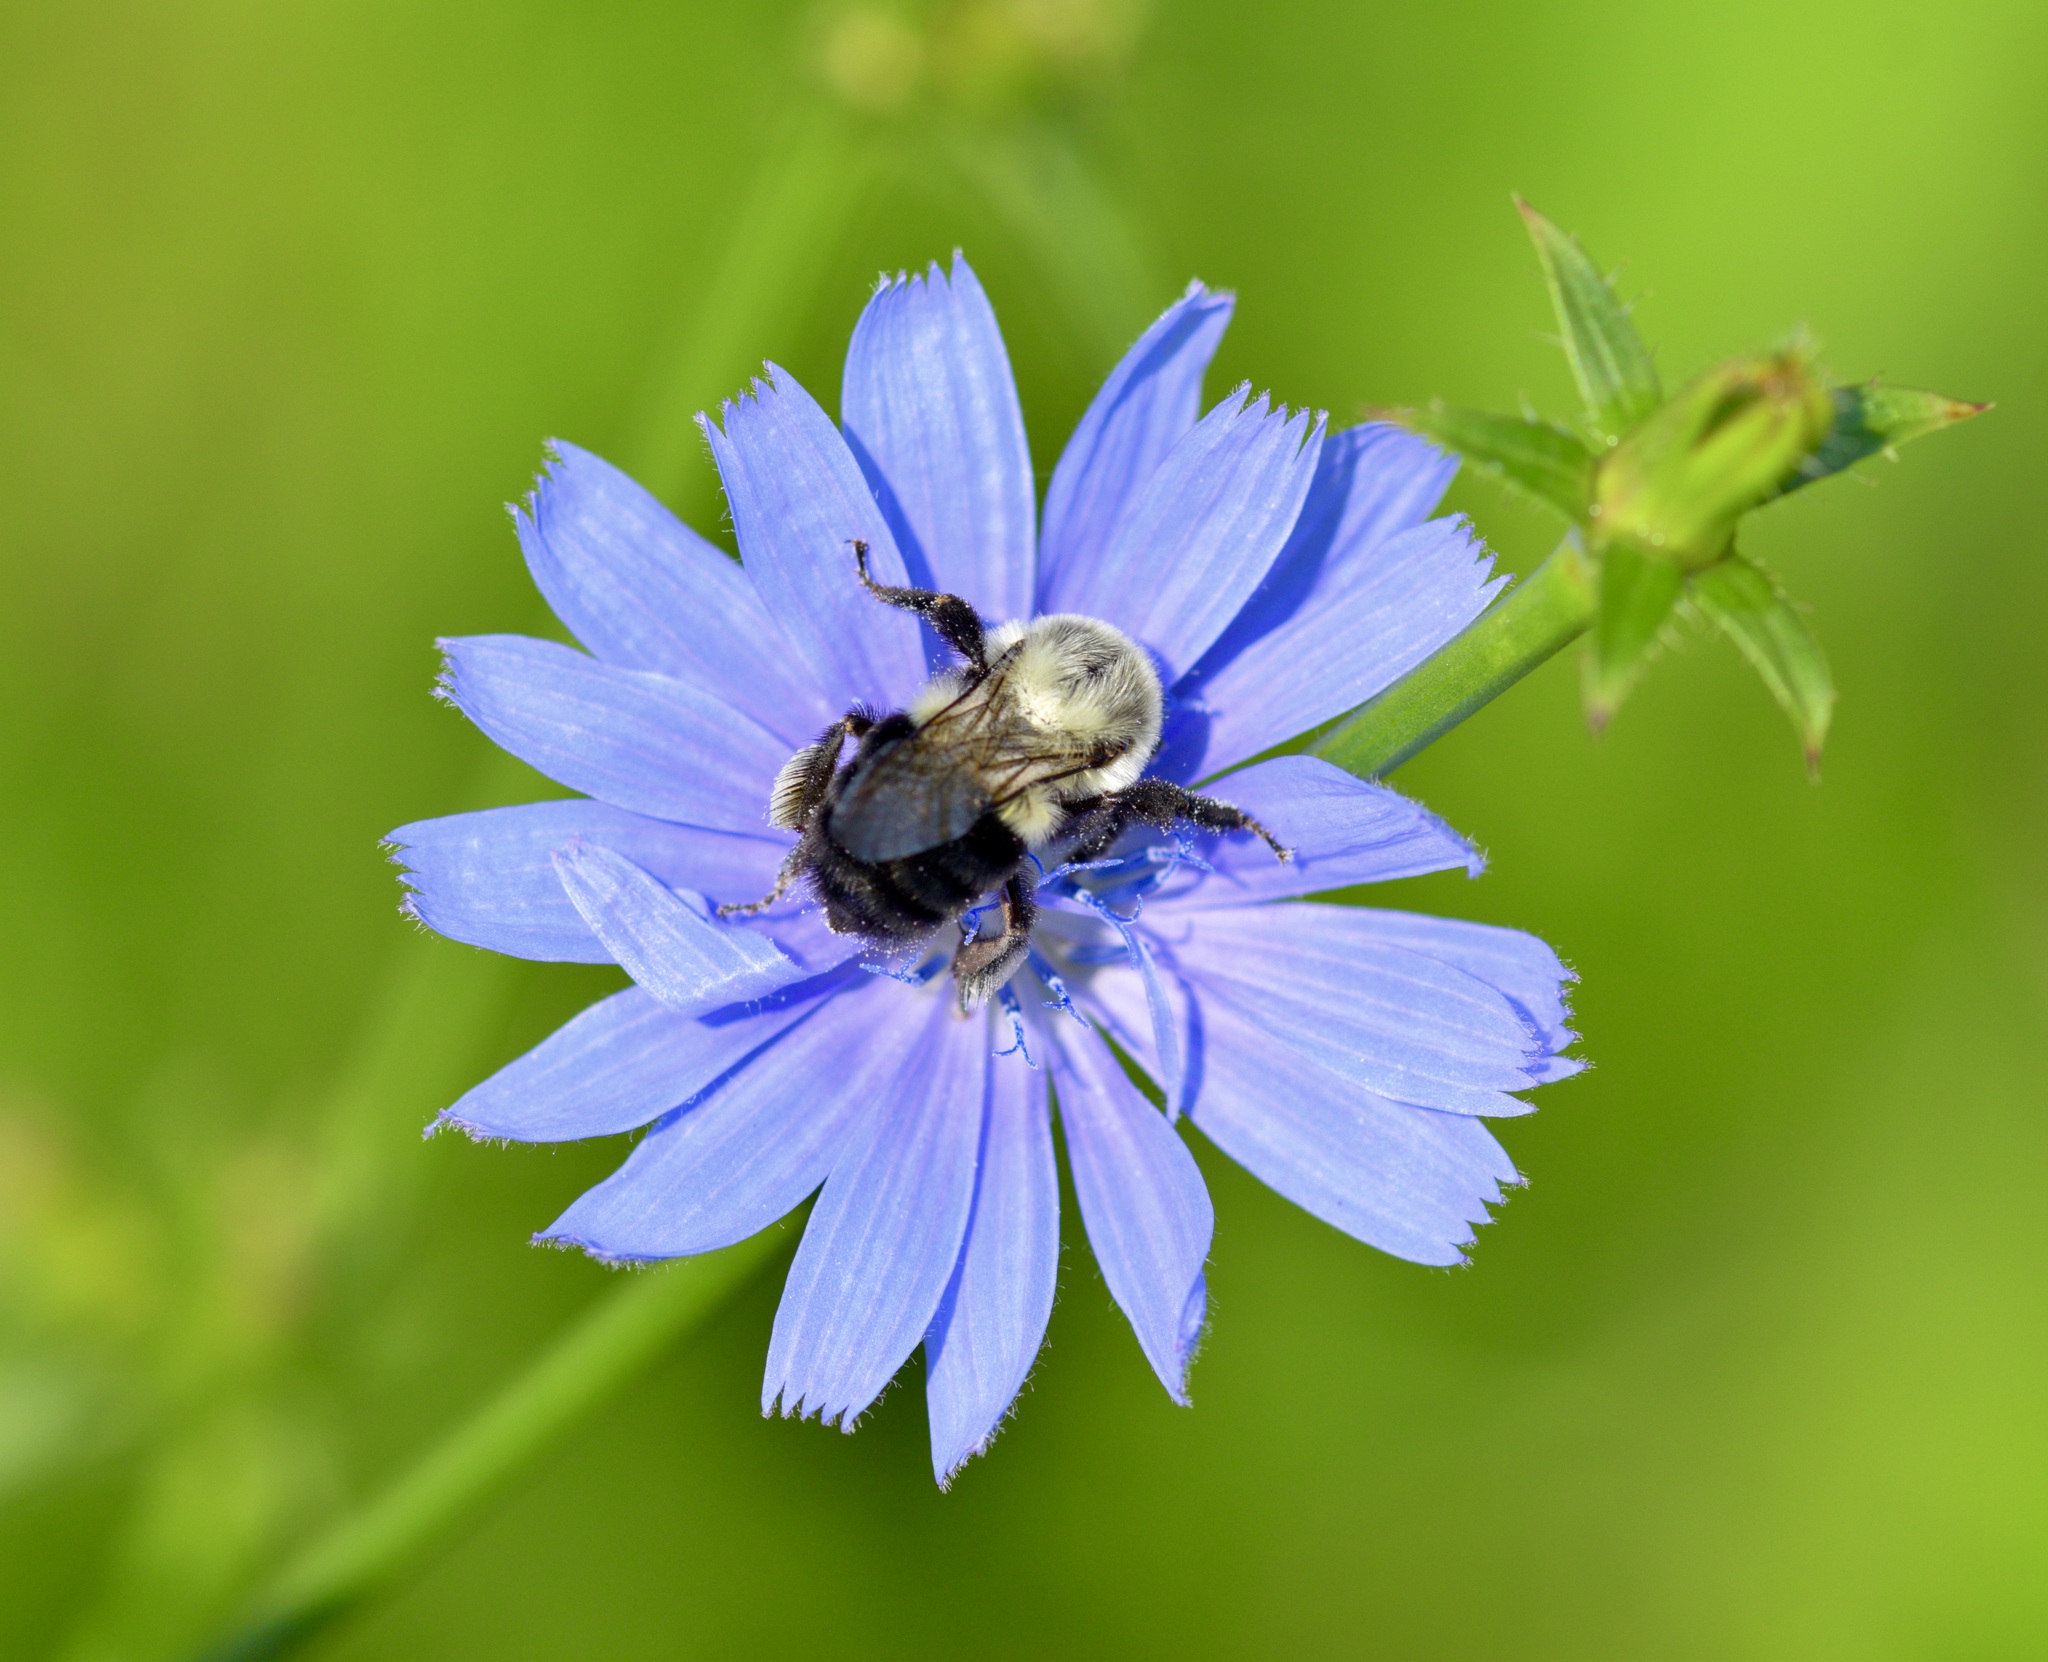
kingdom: Animalia
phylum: Arthropoda
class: Insecta
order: Hymenoptera
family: Apidae
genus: Bombus
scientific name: Bombus impatiens
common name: Common eastern bumble bee
